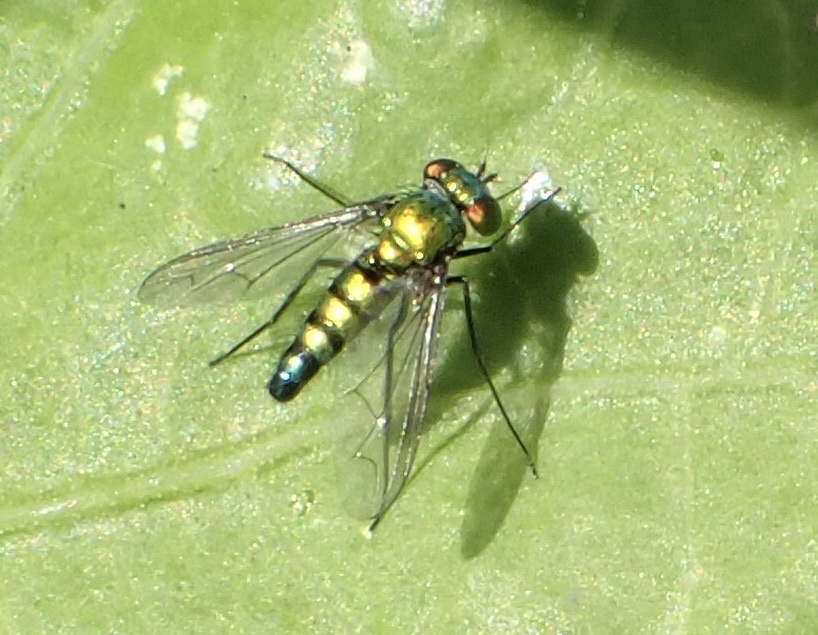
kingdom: Animalia
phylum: Arthropoda
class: Insecta
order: Diptera
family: Dolichopodidae
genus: Condylostylus
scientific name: Condylostylus longicornis
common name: Long-legged fly
